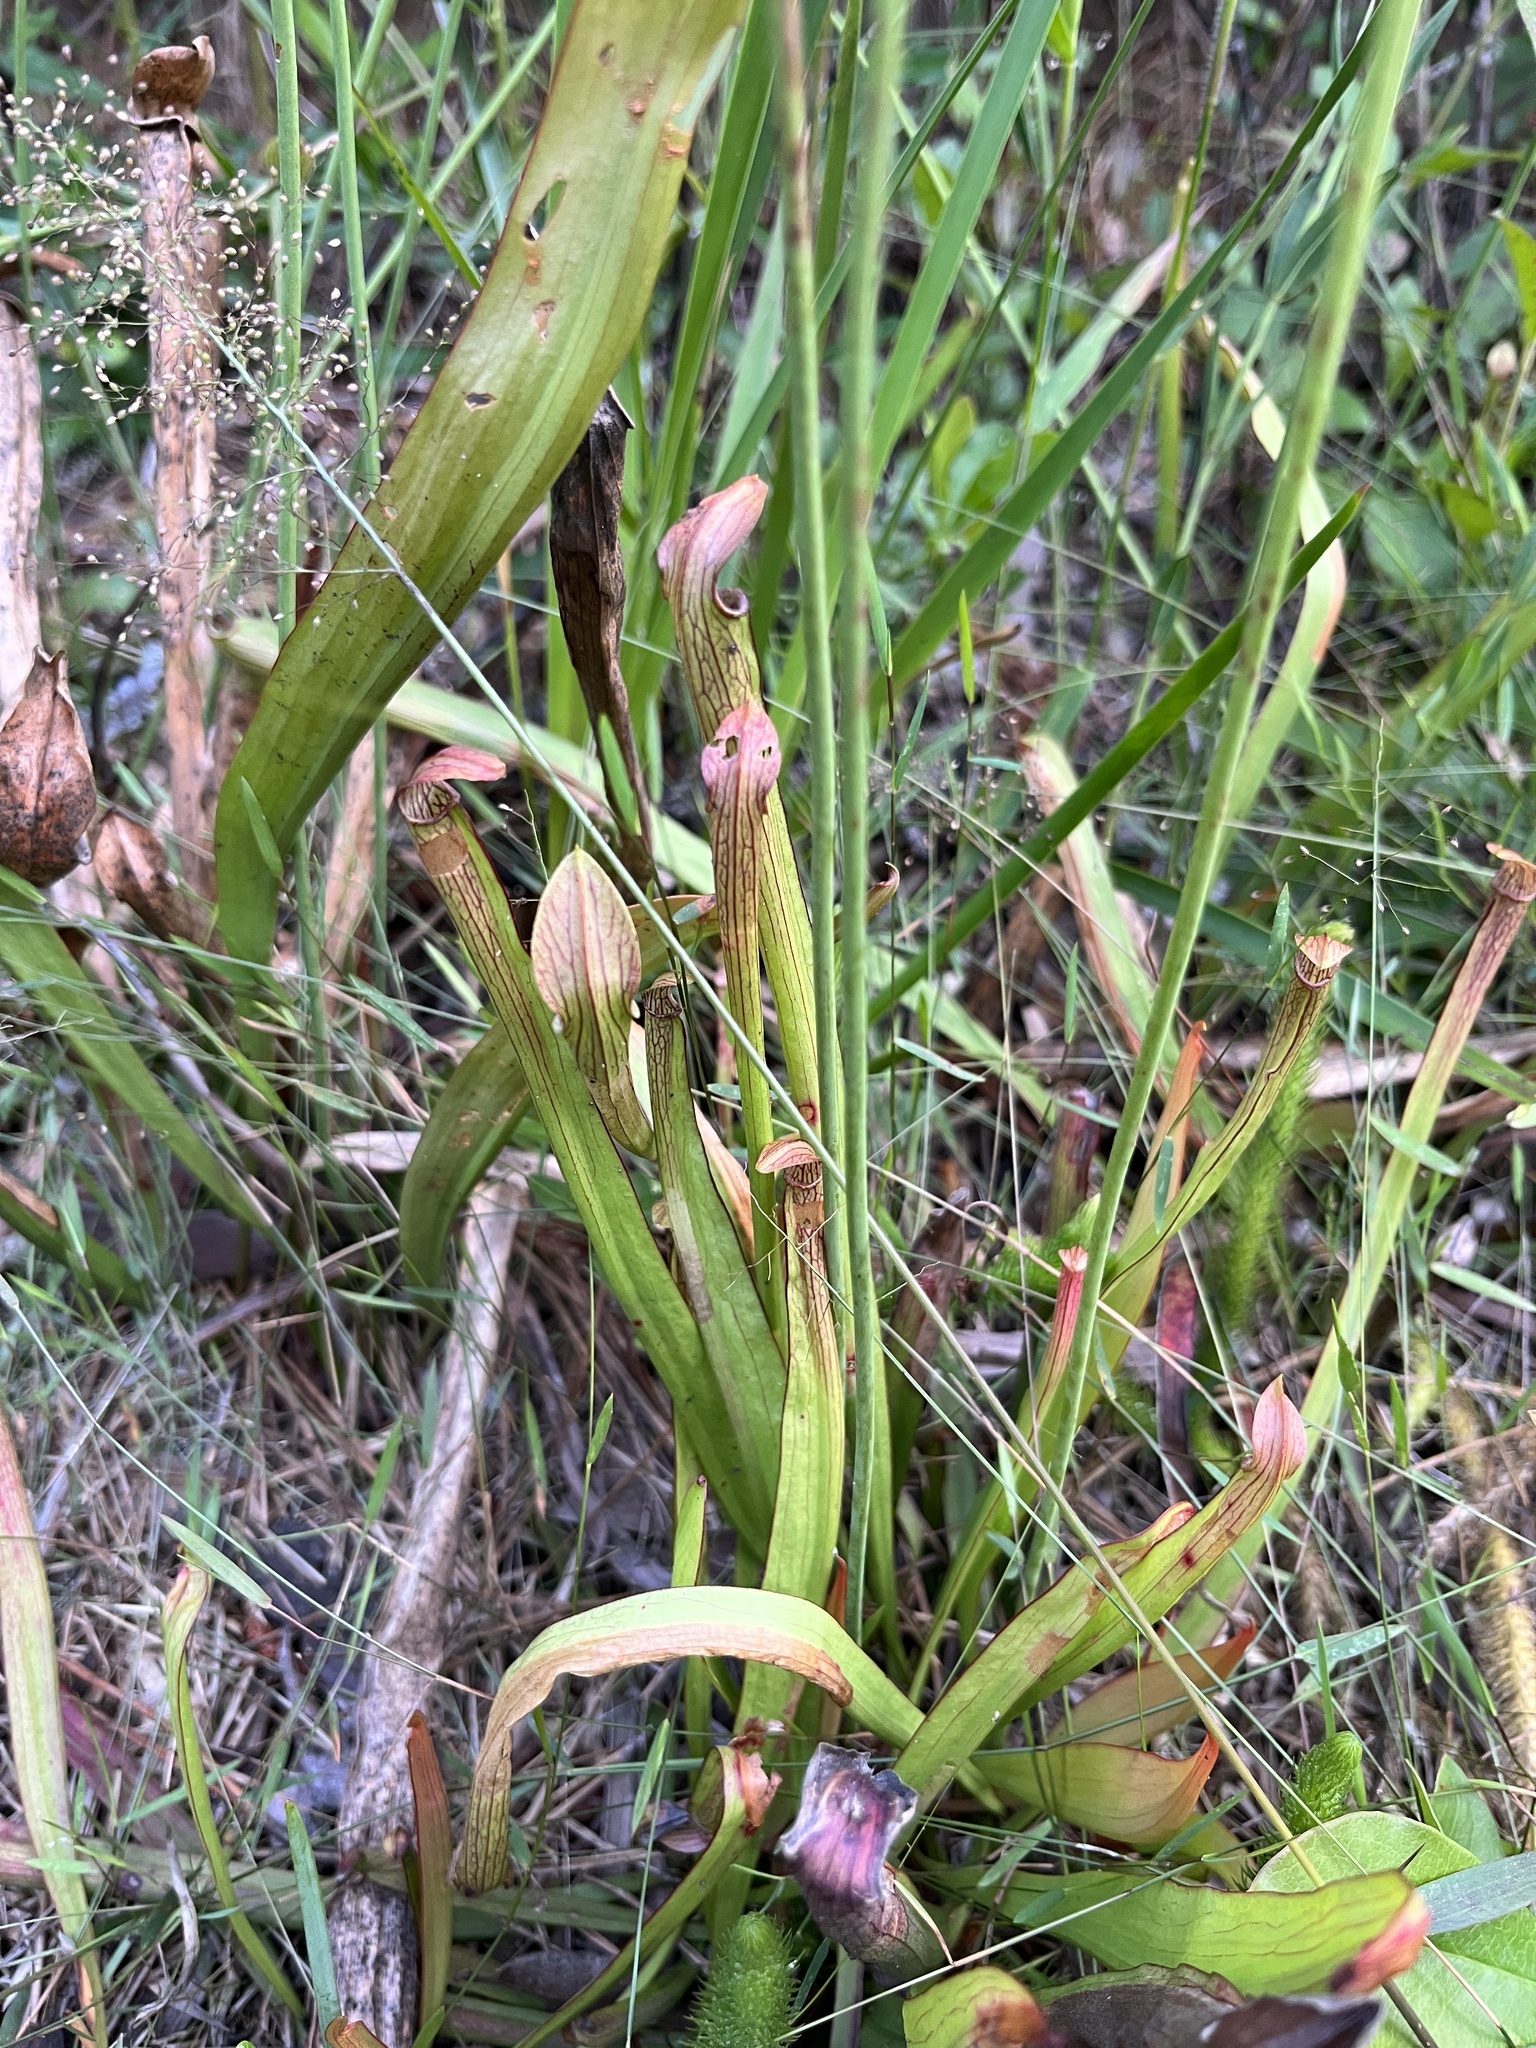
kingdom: Plantae
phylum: Tracheophyta
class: Magnoliopsida
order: Ericales
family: Sarraceniaceae
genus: Sarracenia
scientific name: Sarracenia rubra
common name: Sweet pitcherplant
